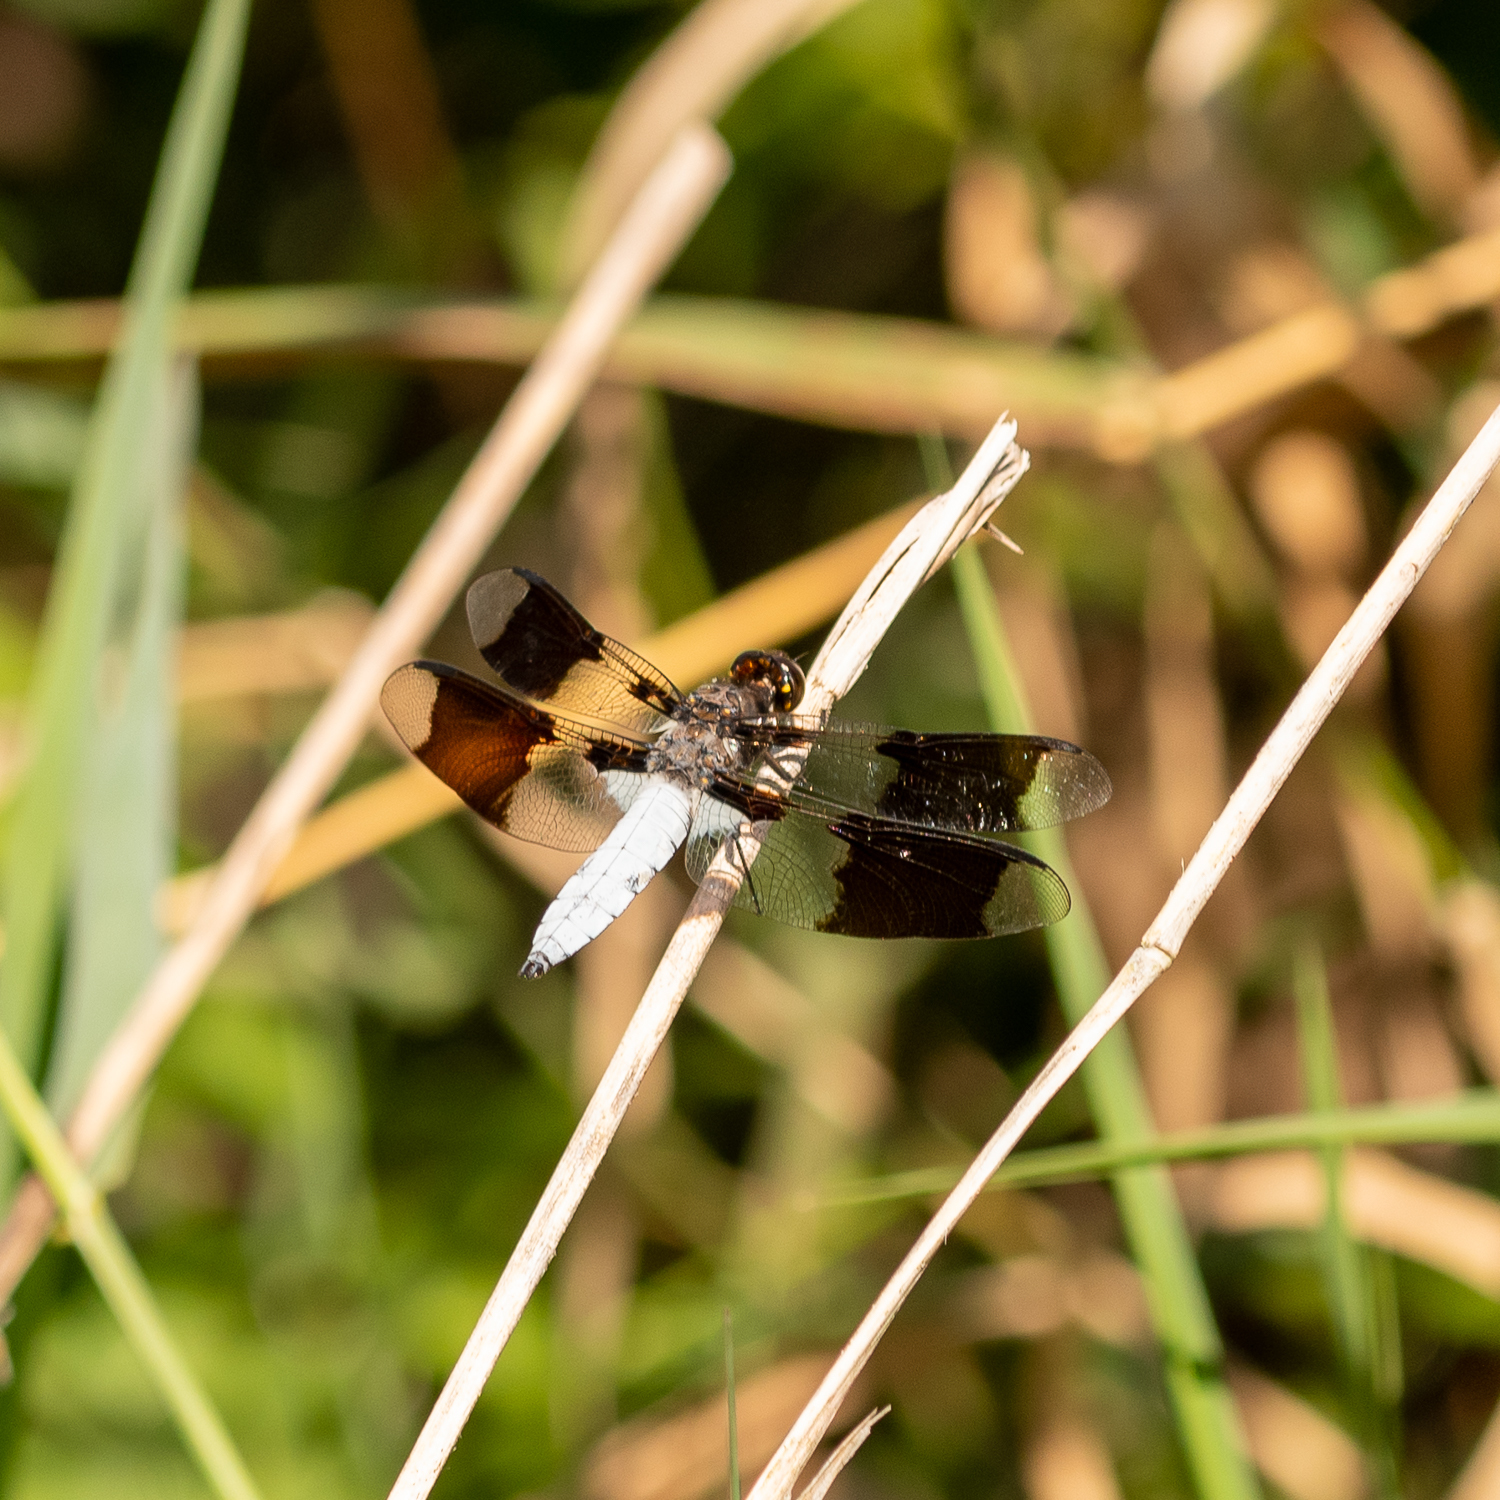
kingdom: Animalia
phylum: Arthropoda
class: Insecta
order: Odonata
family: Libellulidae
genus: Plathemis
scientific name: Plathemis lydia
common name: Common whitetail
